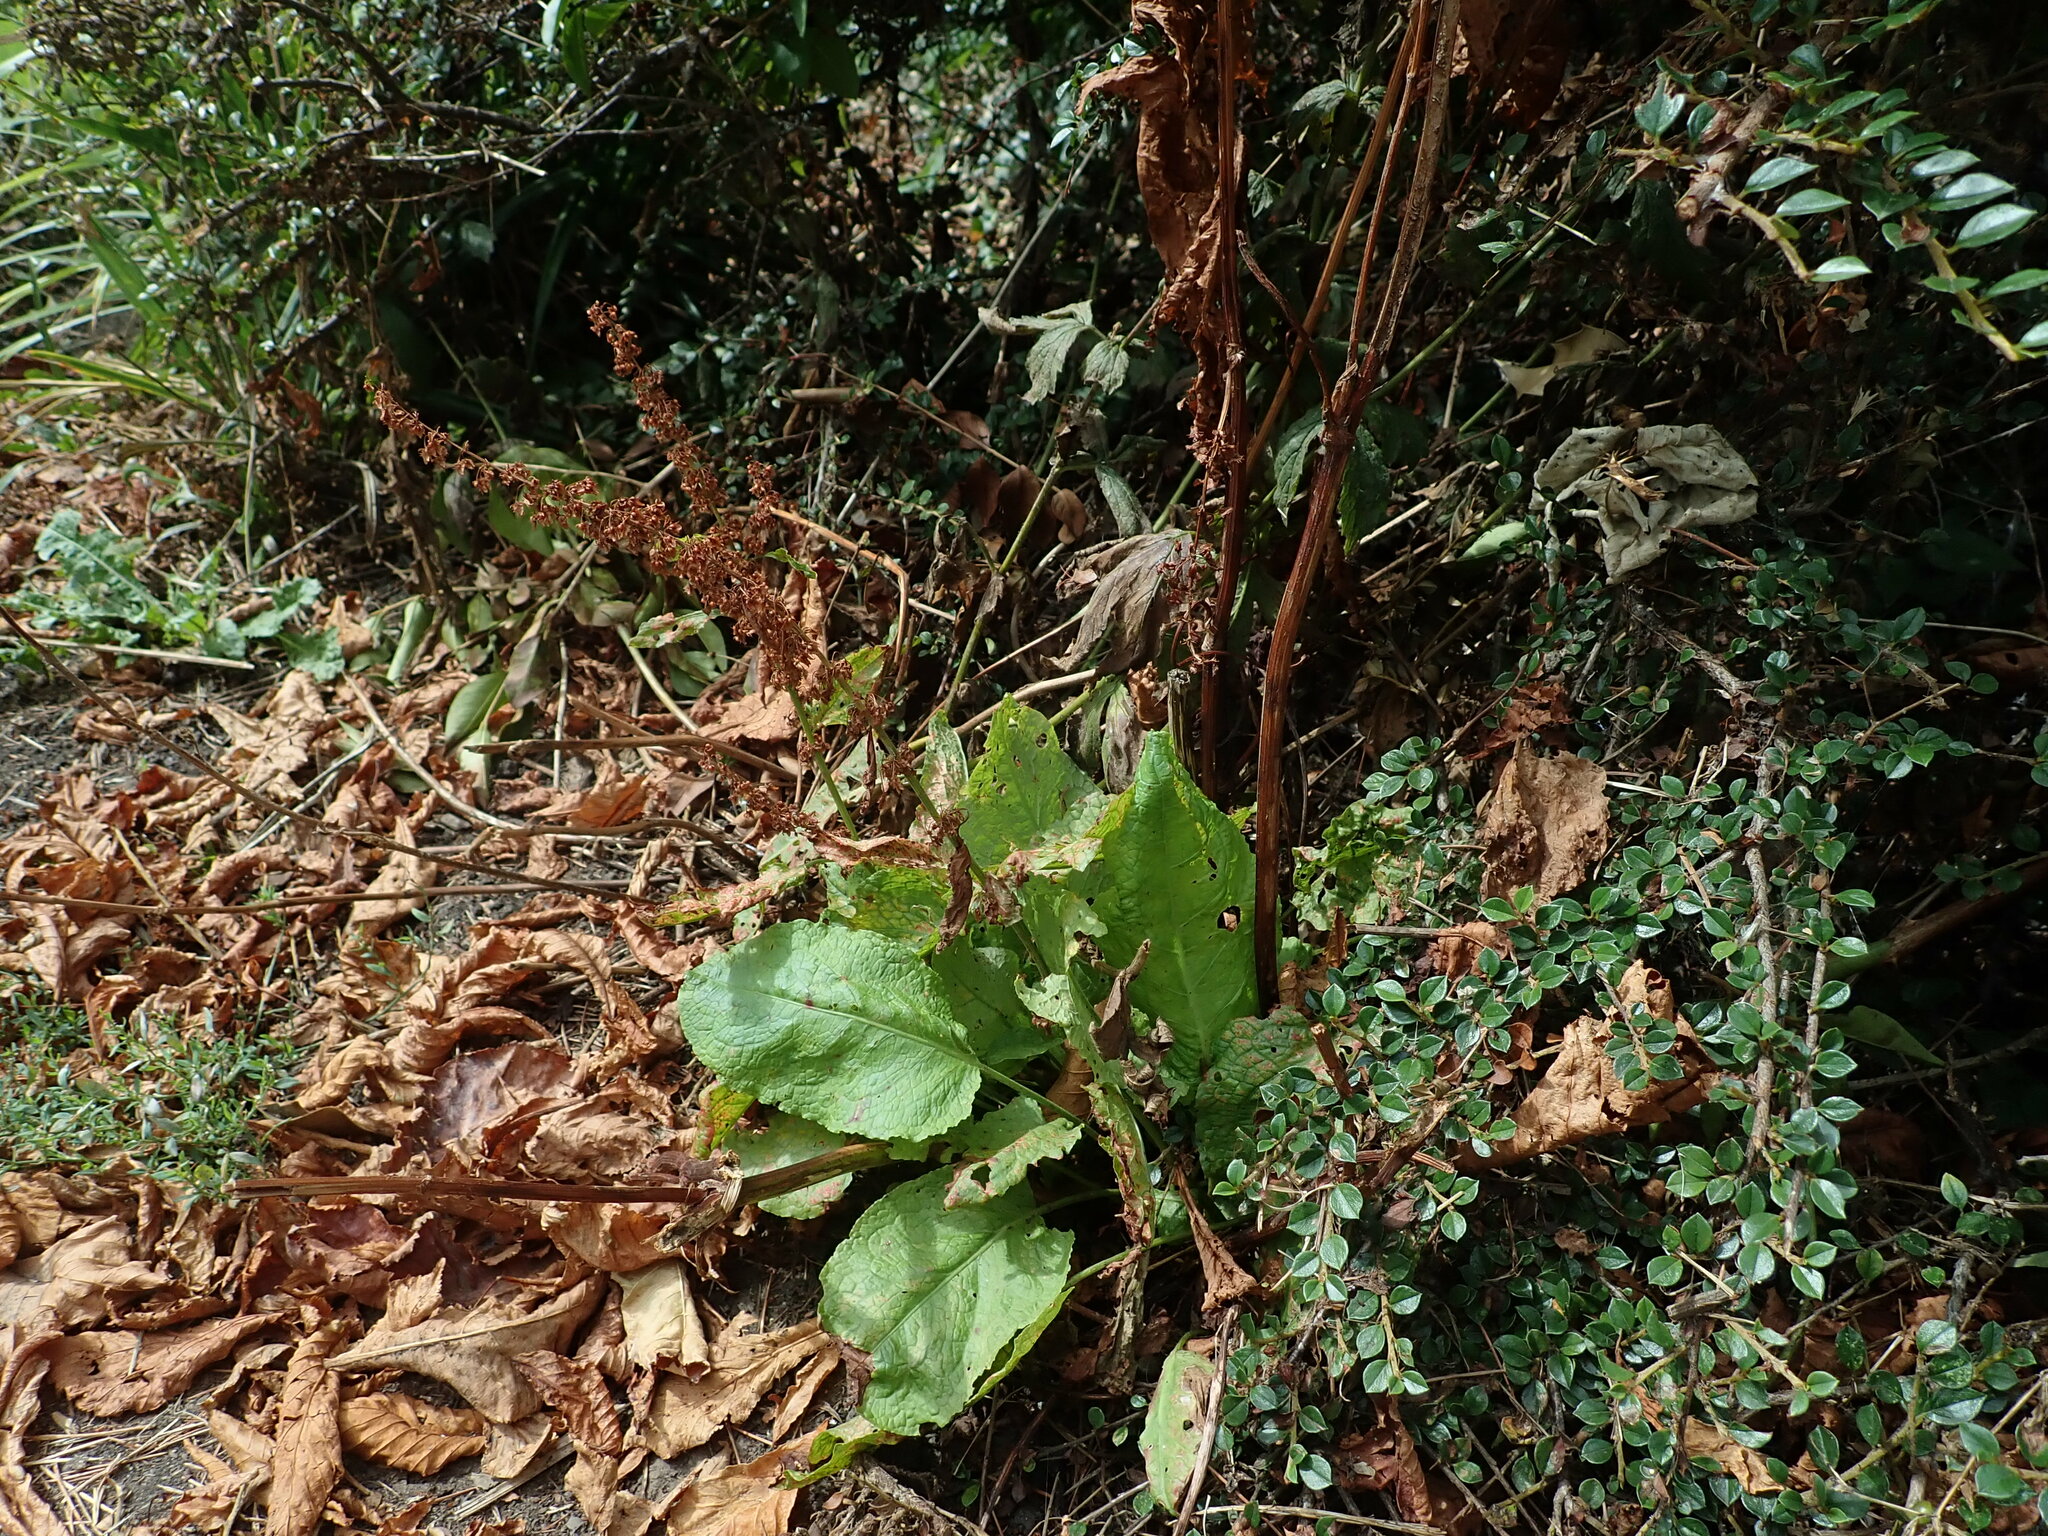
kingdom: Plantae
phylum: Tracheophyta
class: Magnoliopsida
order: Caryophyllales
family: Polygonaceae
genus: Rumex
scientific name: Rumex obtusifolius
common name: Bitter dock
